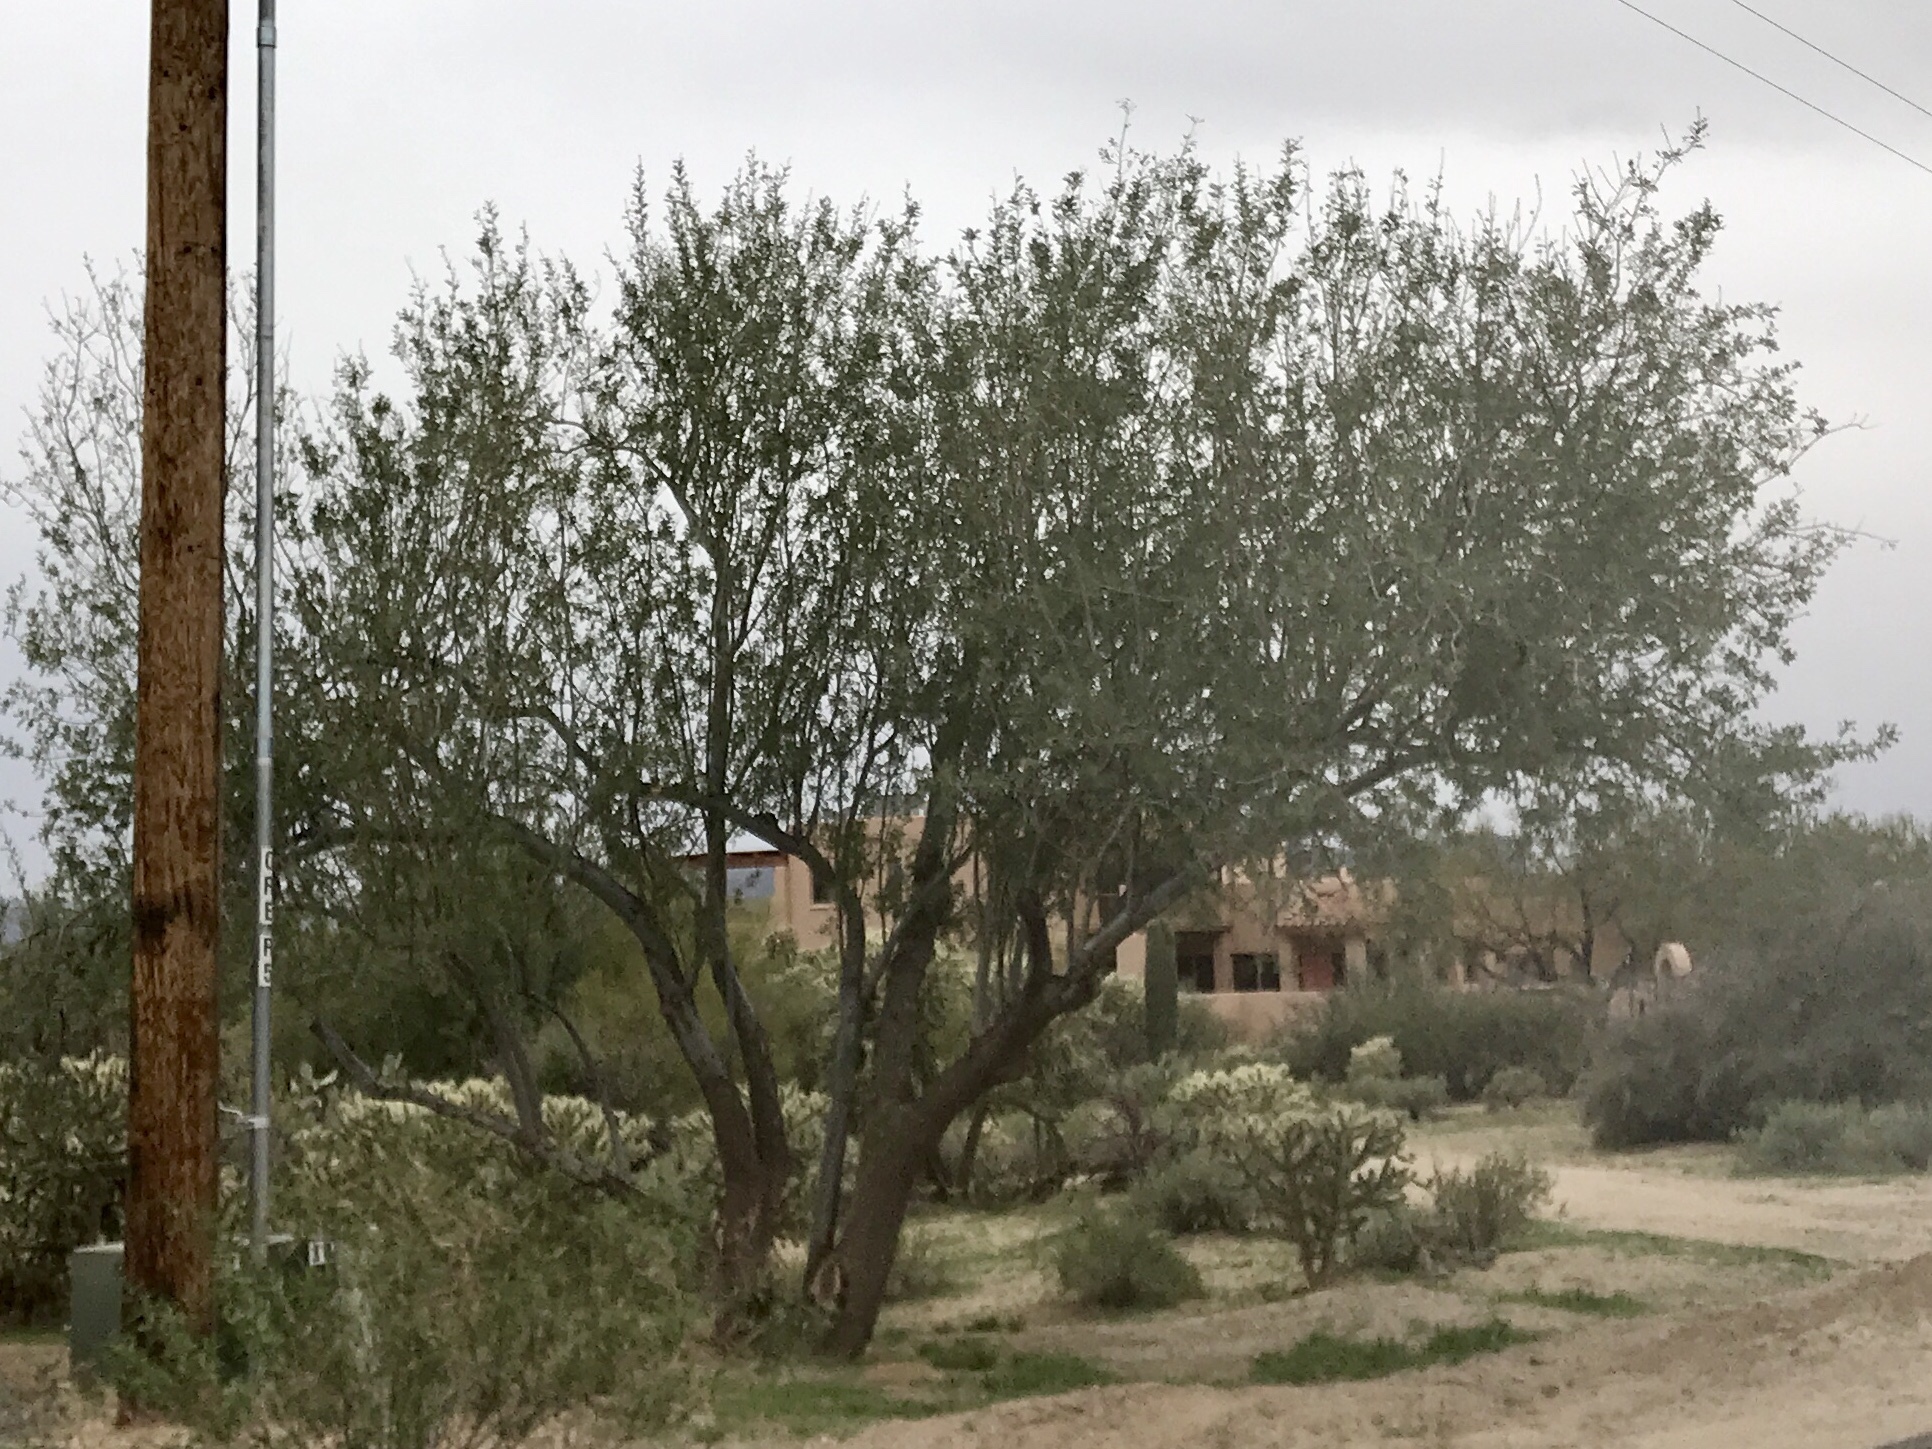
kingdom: Plantae
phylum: Tracheophyta
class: Magnoliopsida
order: Fabales
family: Fabaceae
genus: Olneya
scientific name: Olneya tesota
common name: Desert ironwood
